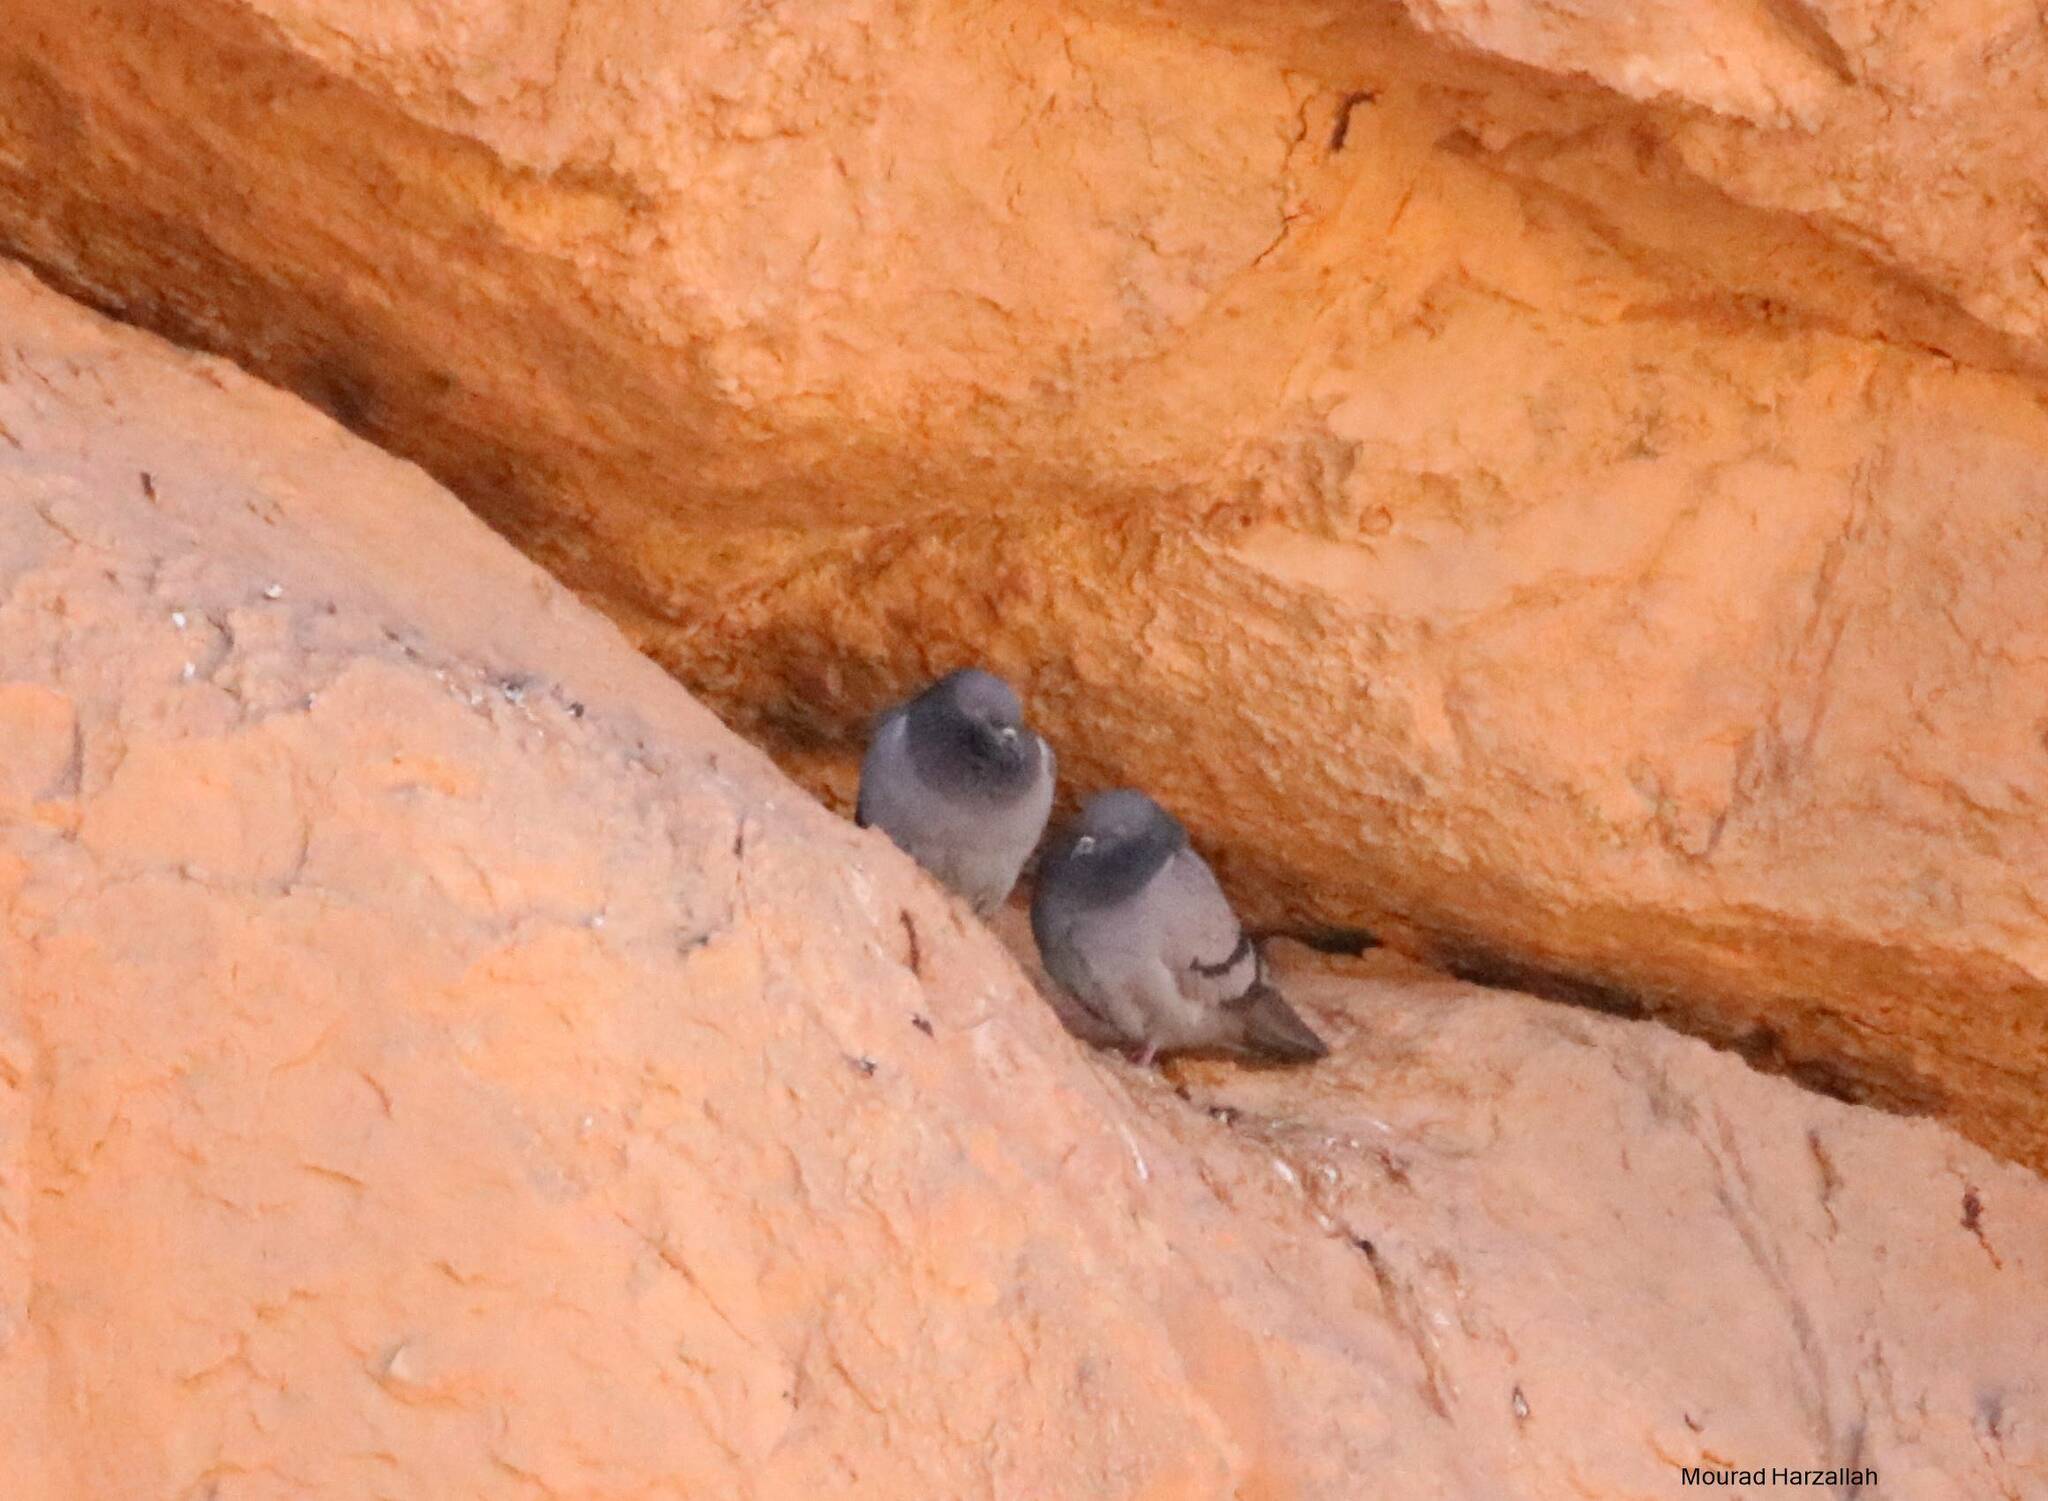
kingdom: Animalia
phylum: Chordata
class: Aves
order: Columbiformes
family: Columbidae
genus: Columba
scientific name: Columba livia
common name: Rock pigeon
